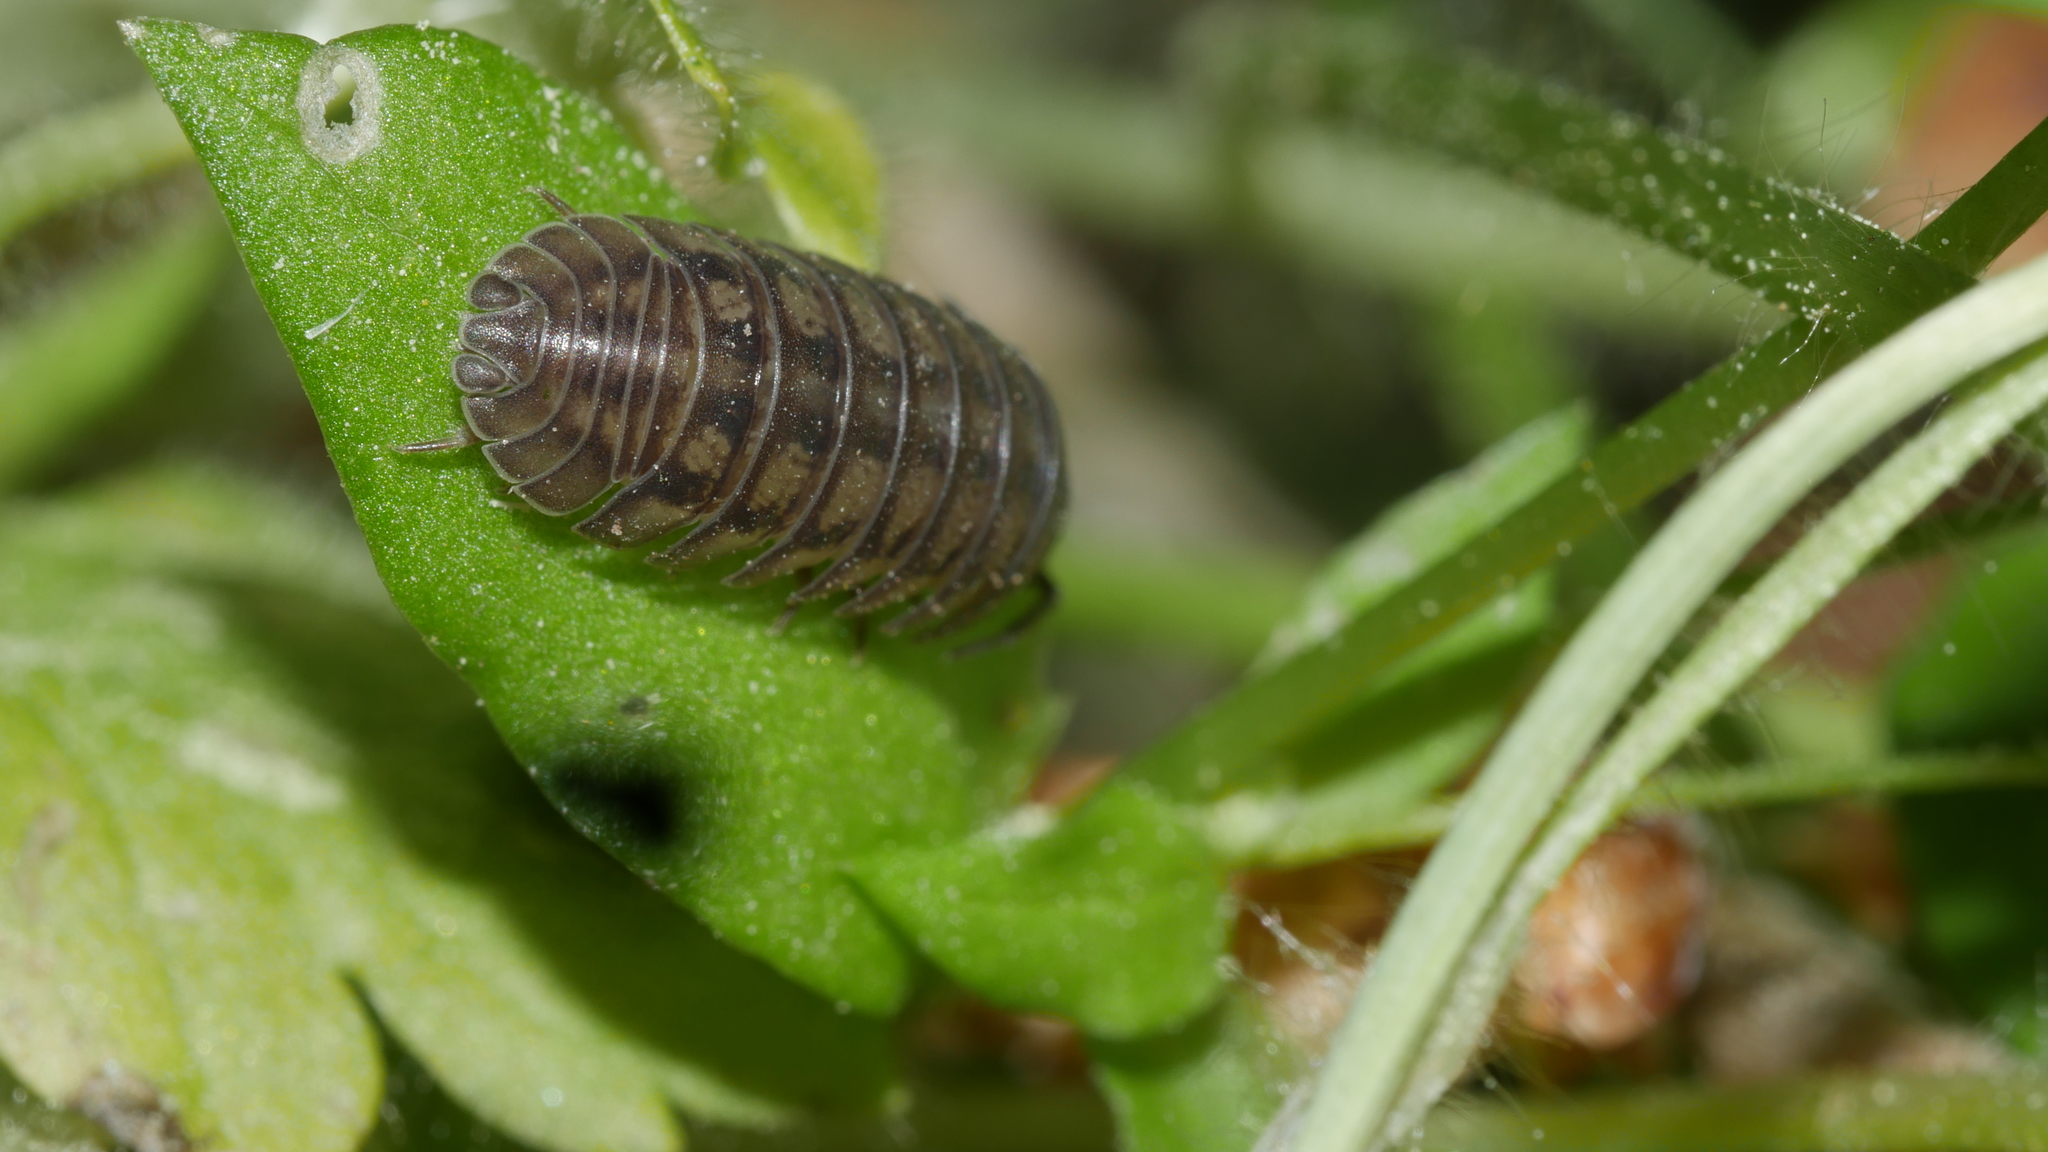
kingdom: Animalia
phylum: Arthropoda
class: Malacostraca
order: Isopoda
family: Armadillidiidae
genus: Armadillidium
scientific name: Armadillidium nasatum
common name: Isopod
